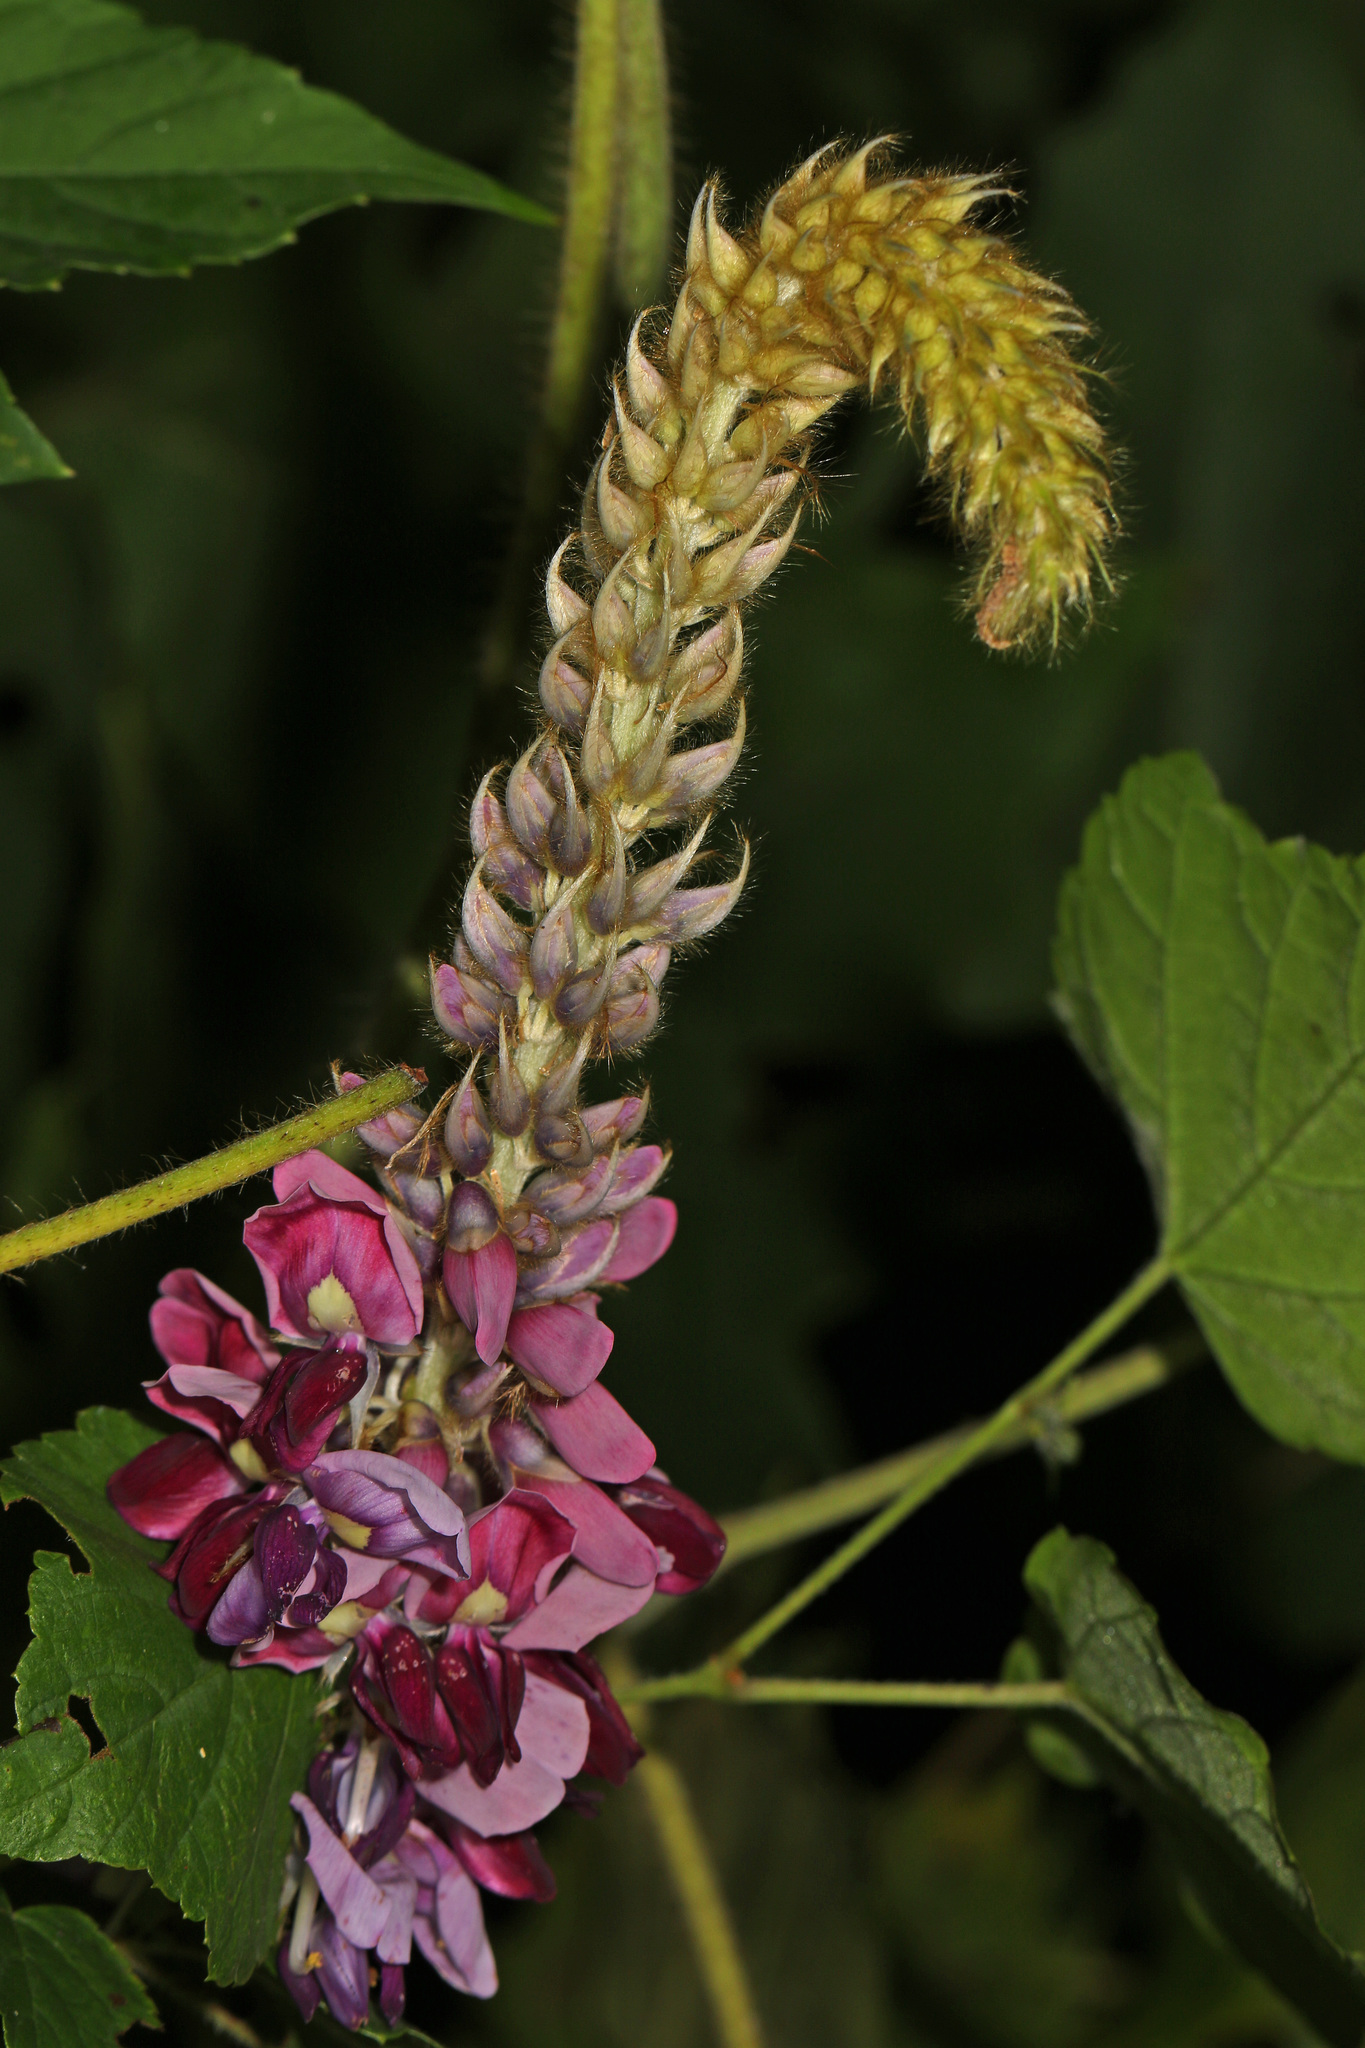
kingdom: Plantae
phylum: Tracheophyta
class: Magnoliopsida
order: Fabales
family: Fabaceae
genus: Pueraria
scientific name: Pueraria montana
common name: Kudzu
